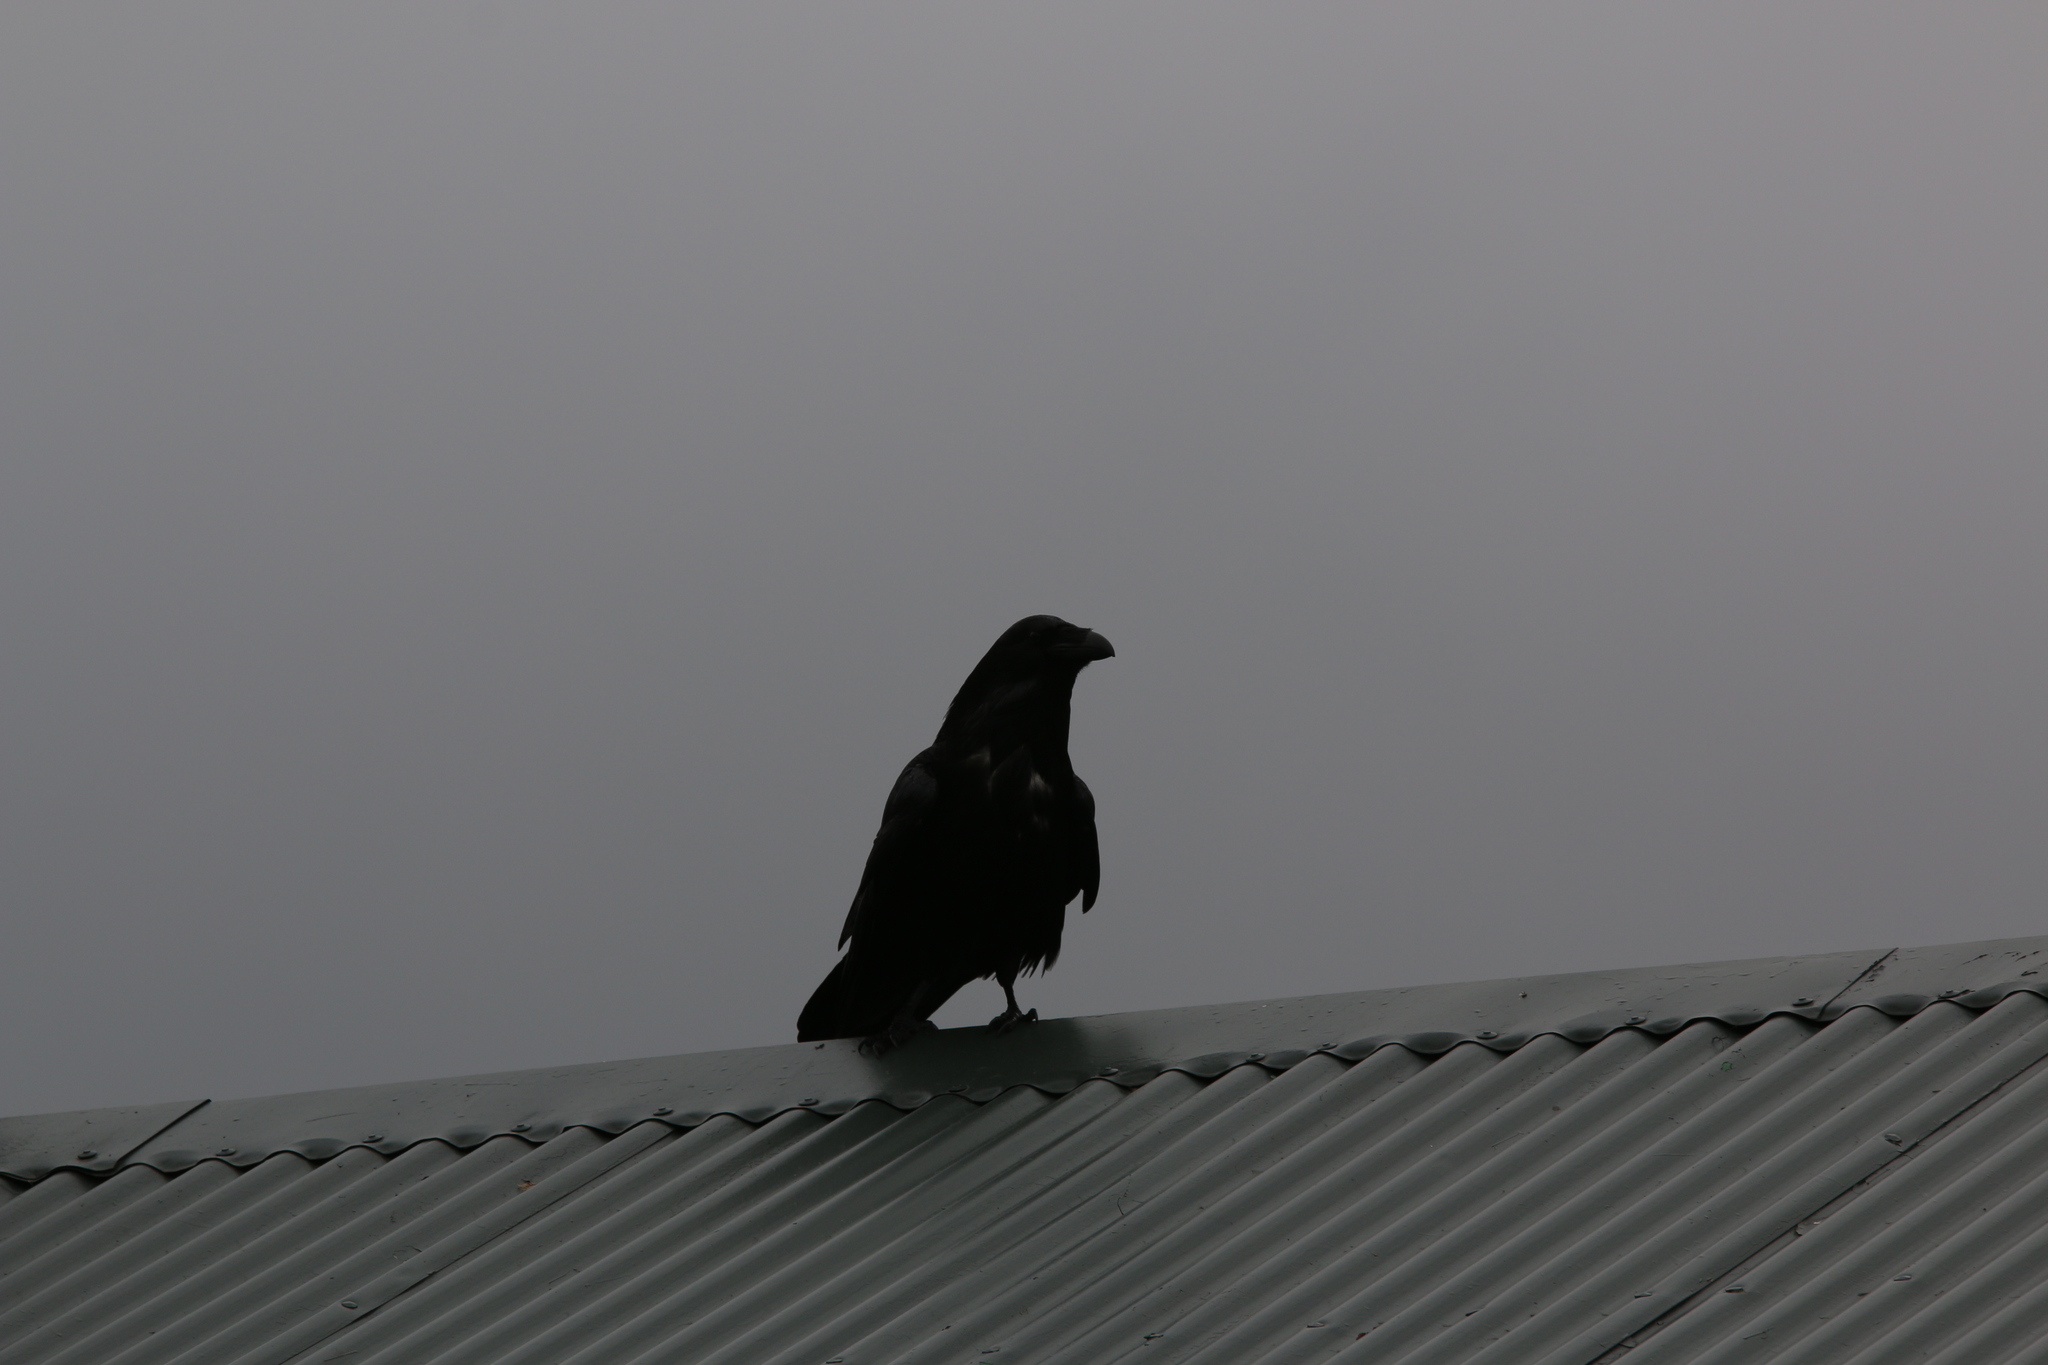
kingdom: Animalia
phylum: Chordata
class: Aves
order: Passeriformes
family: Corvidae
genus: Corvus
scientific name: Corvus corax
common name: Common raven
